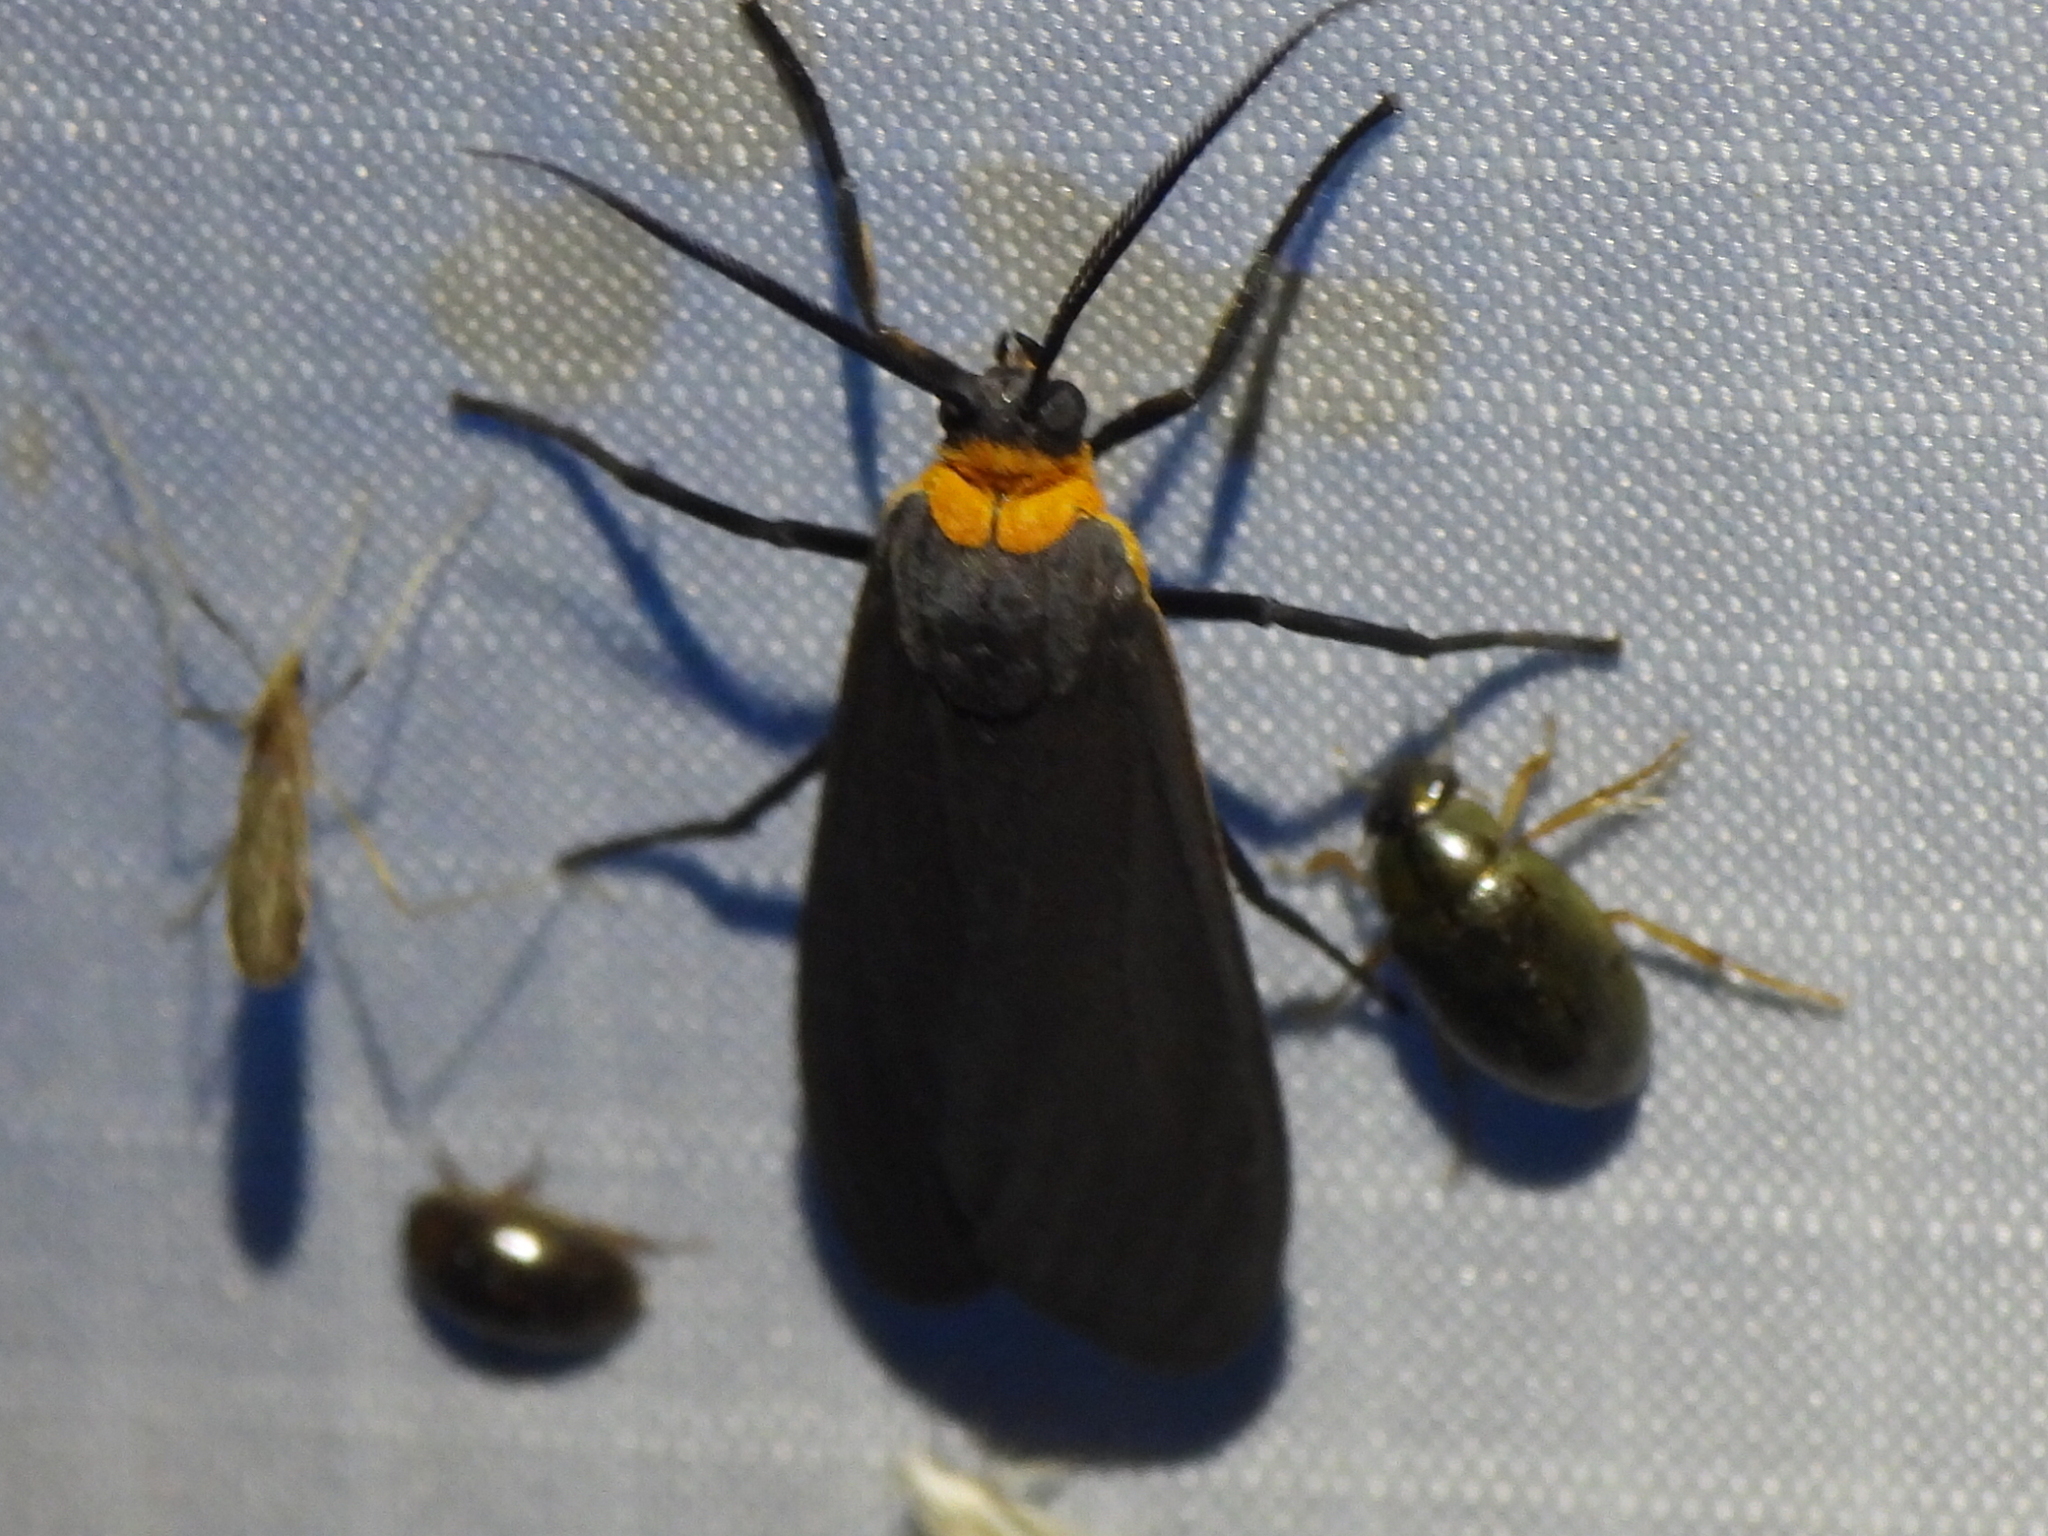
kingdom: Animalia
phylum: Arthropoda
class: Insecta
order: Lepidoptera
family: Erebidae
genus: Cisseps
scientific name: Cisseps fulvicollis
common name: Yellow-collared scape moth
